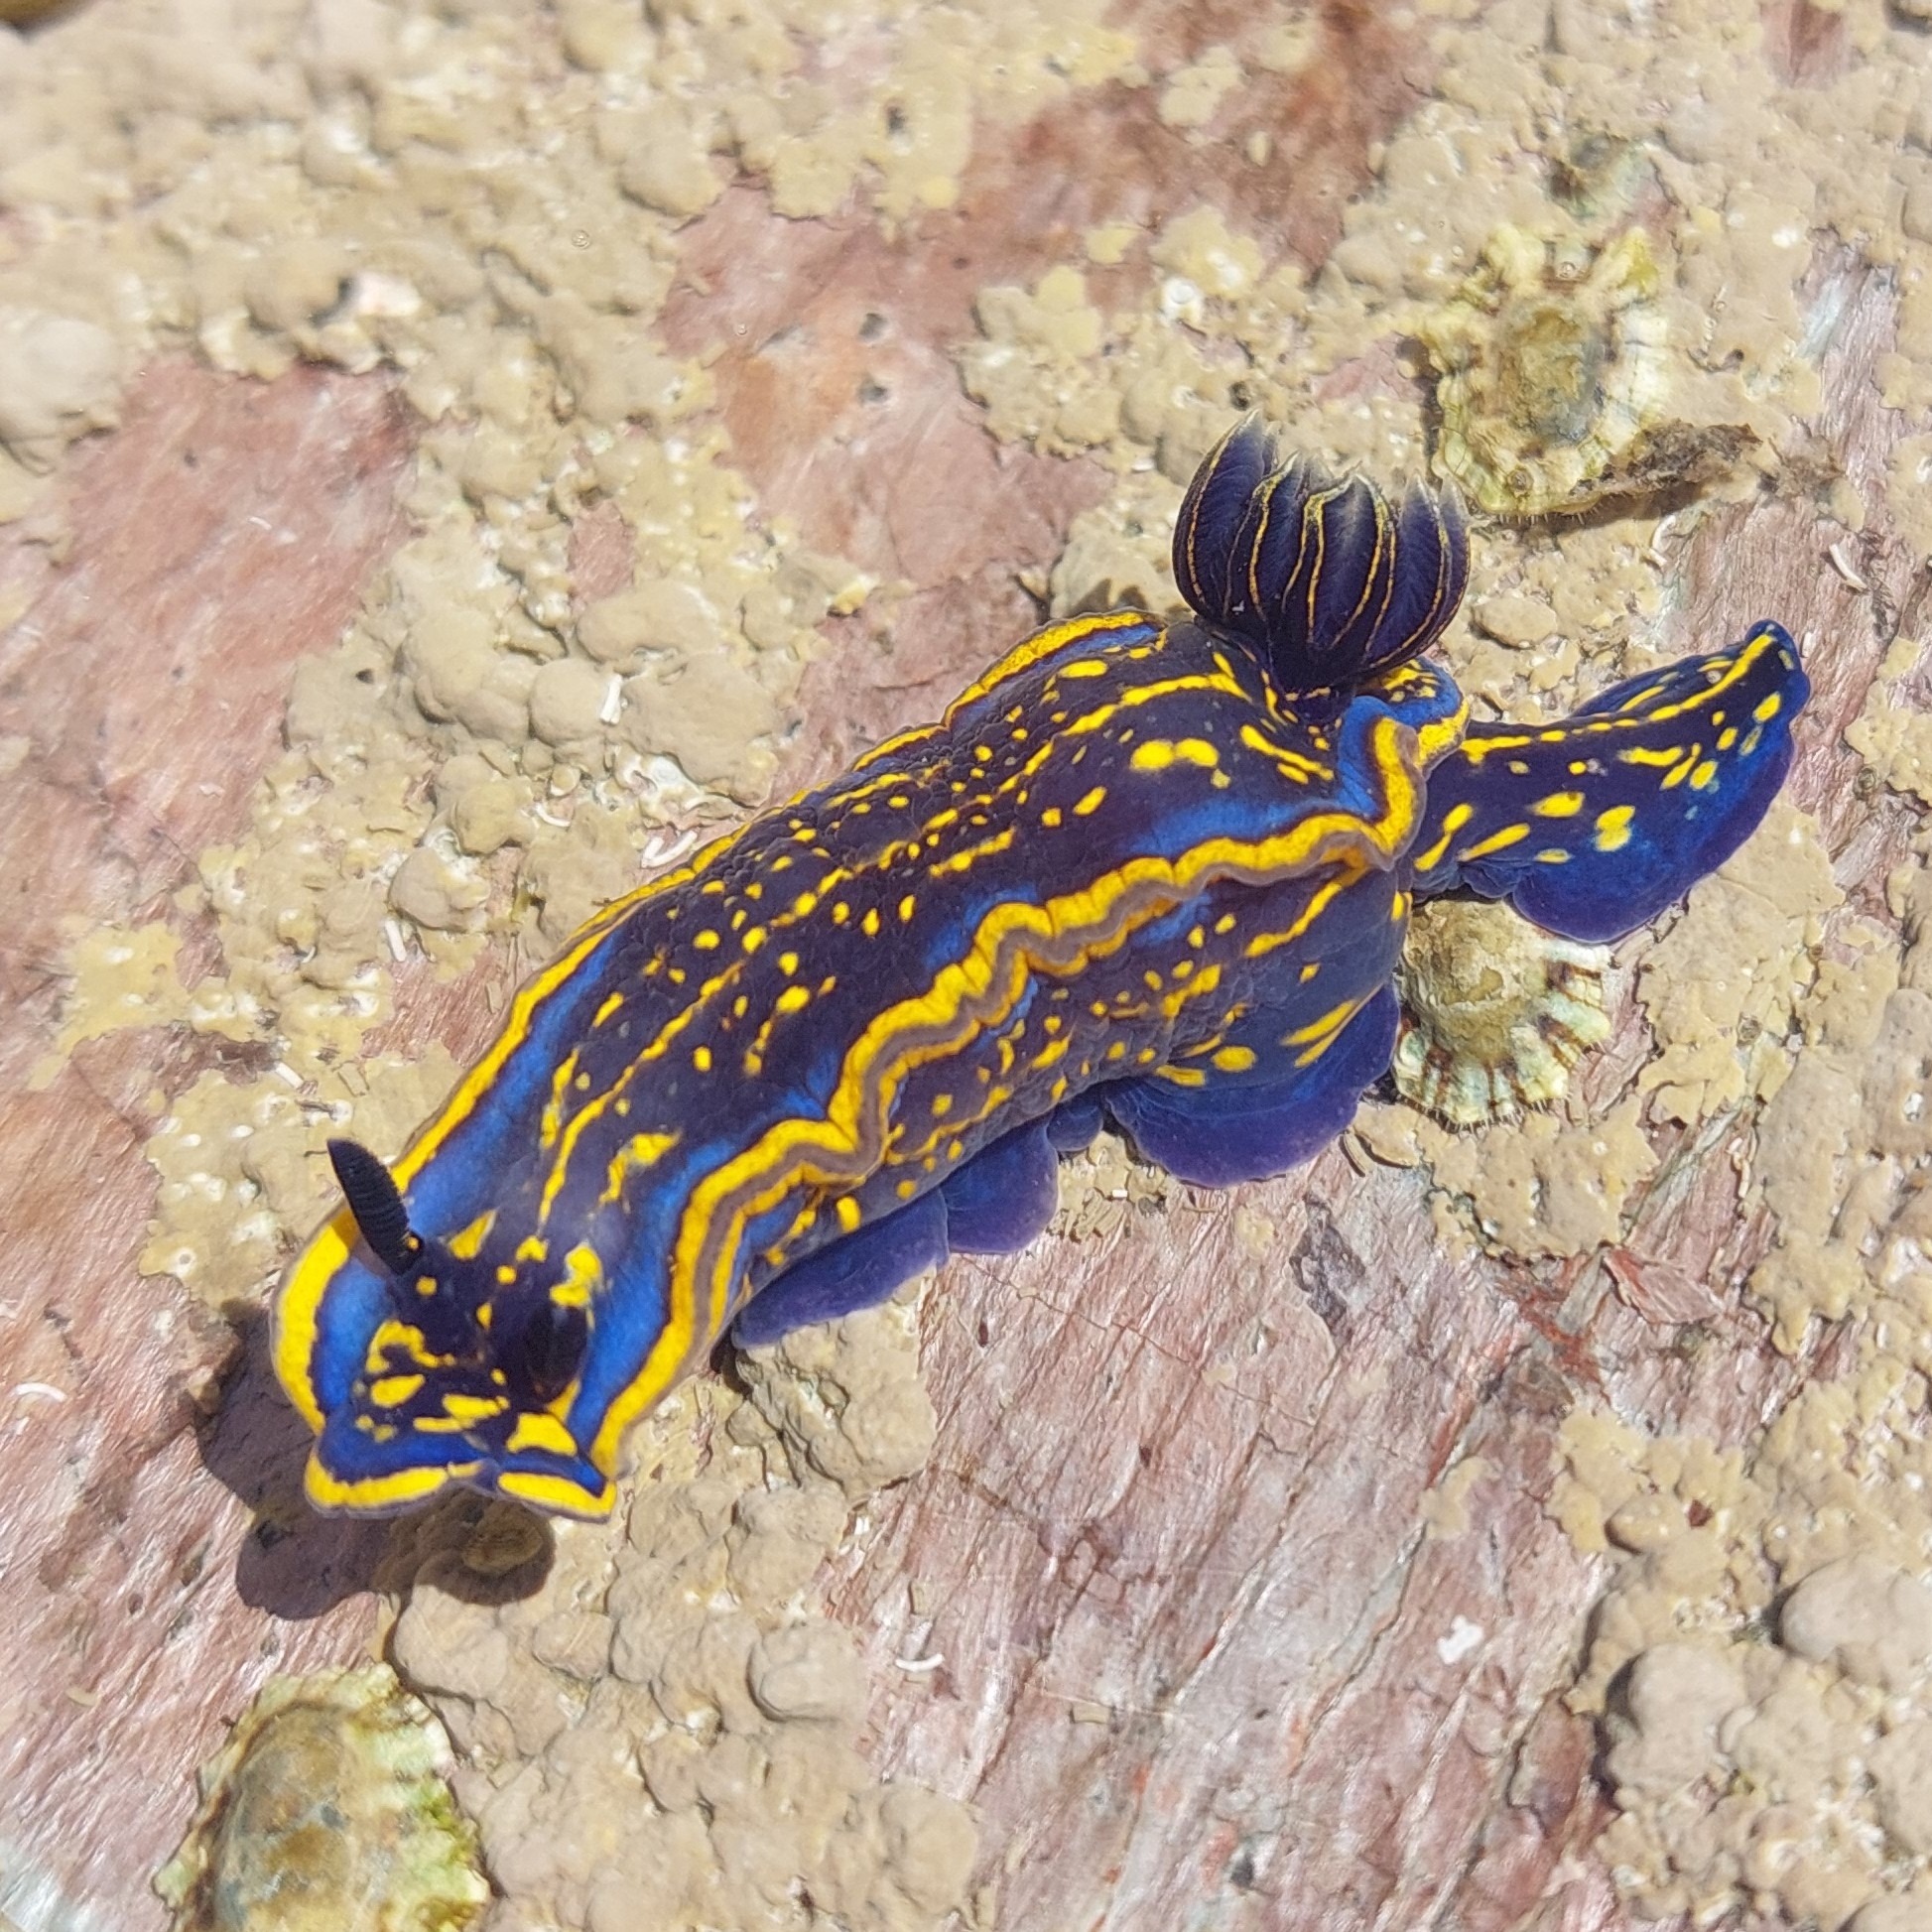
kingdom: Animalia
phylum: Mollusca
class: Gastropoda
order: Nudibranchia
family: Chromodorididae
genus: Felimare
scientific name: Felimare cantabrica
